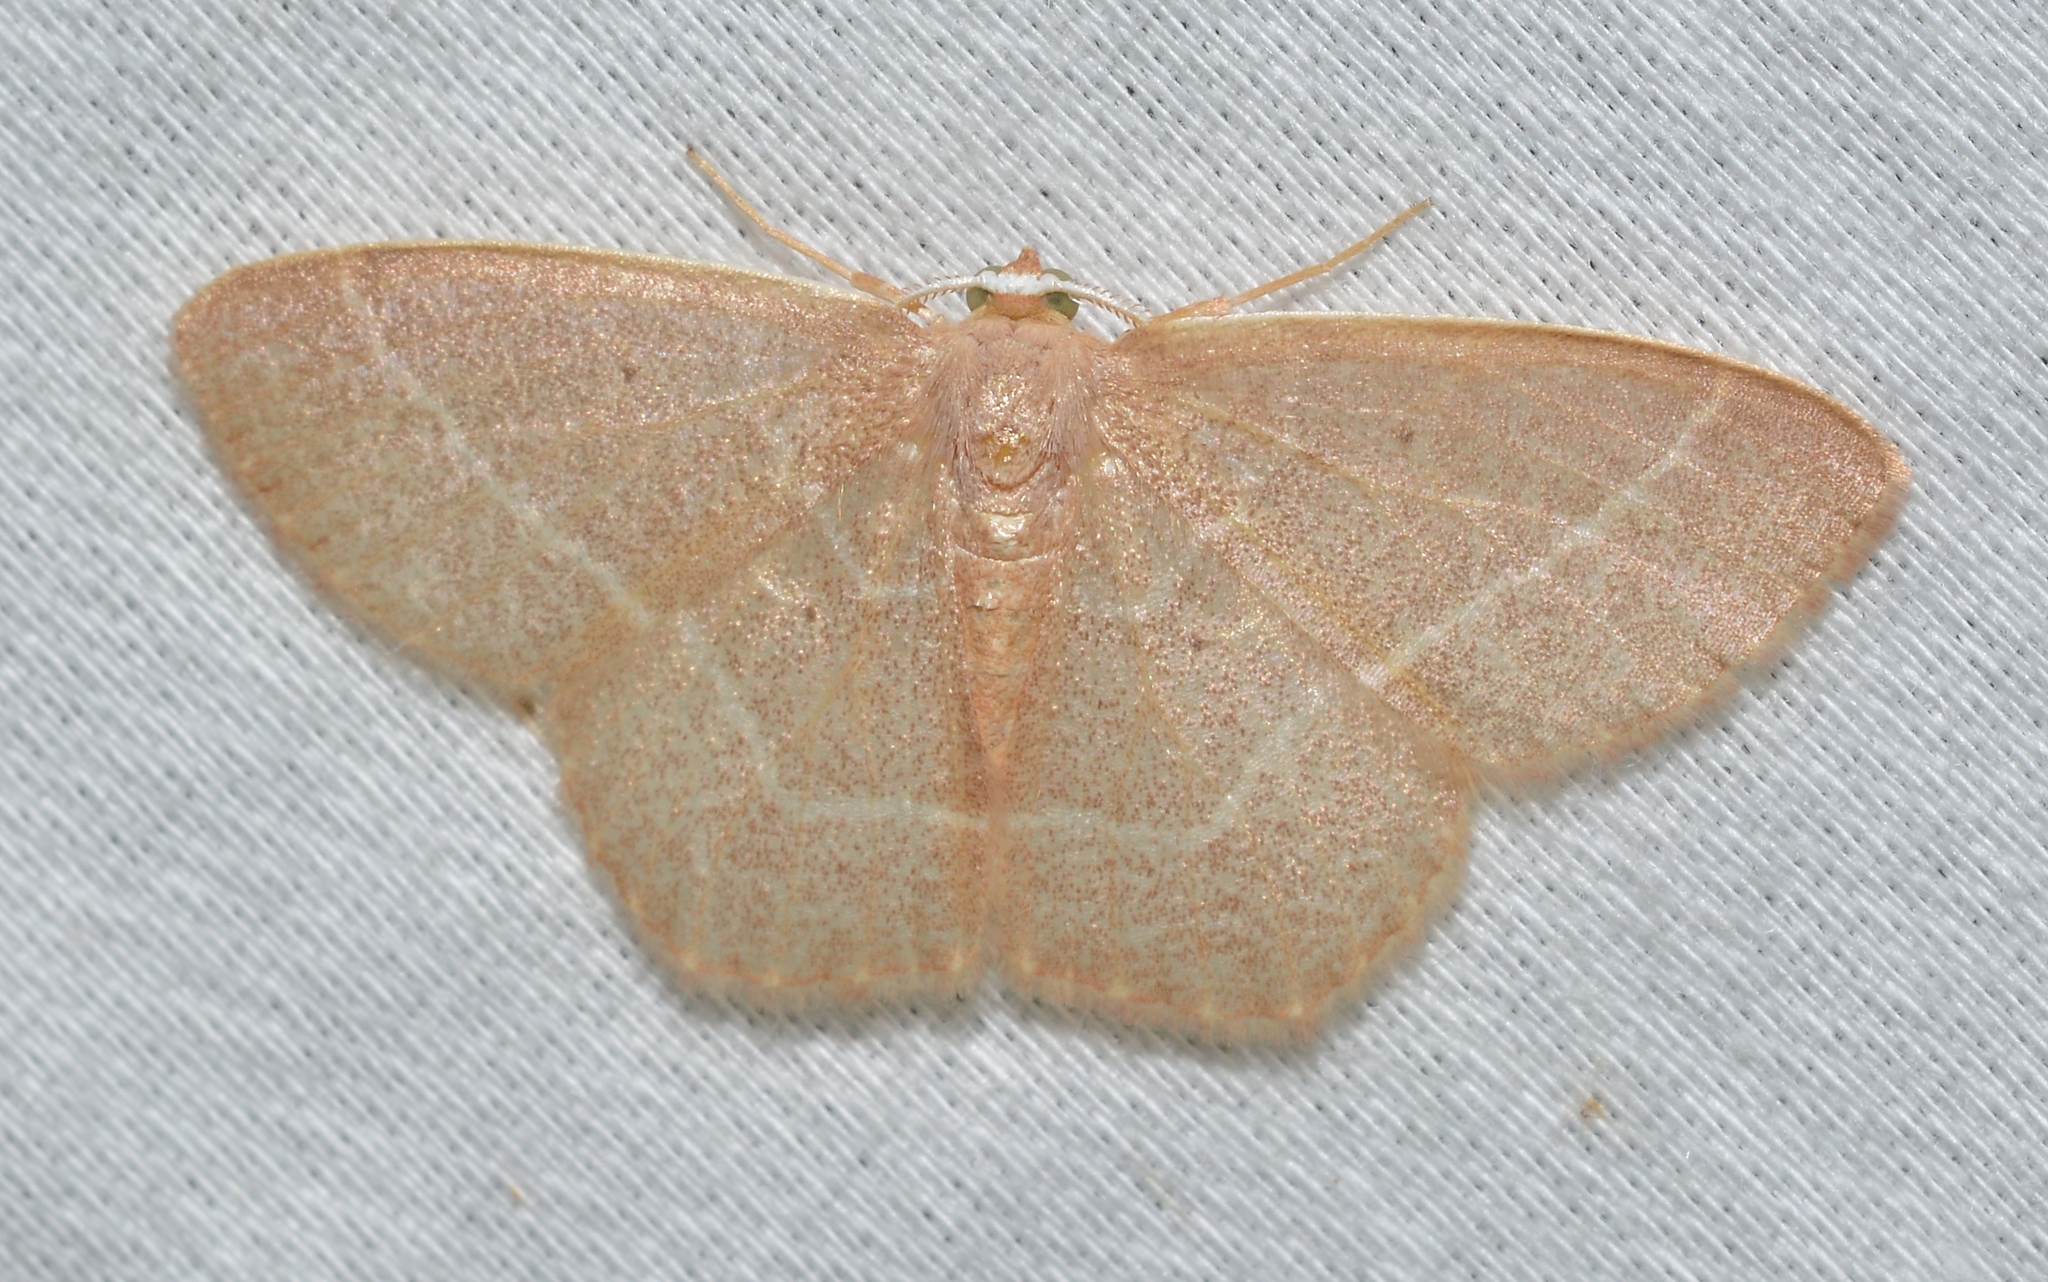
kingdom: Animalia
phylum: Arthropoda
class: Insecta
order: Lepidoptera
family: Geometridae
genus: Nemoria
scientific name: Nemoria bistriaria
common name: Red-fringed emerald
